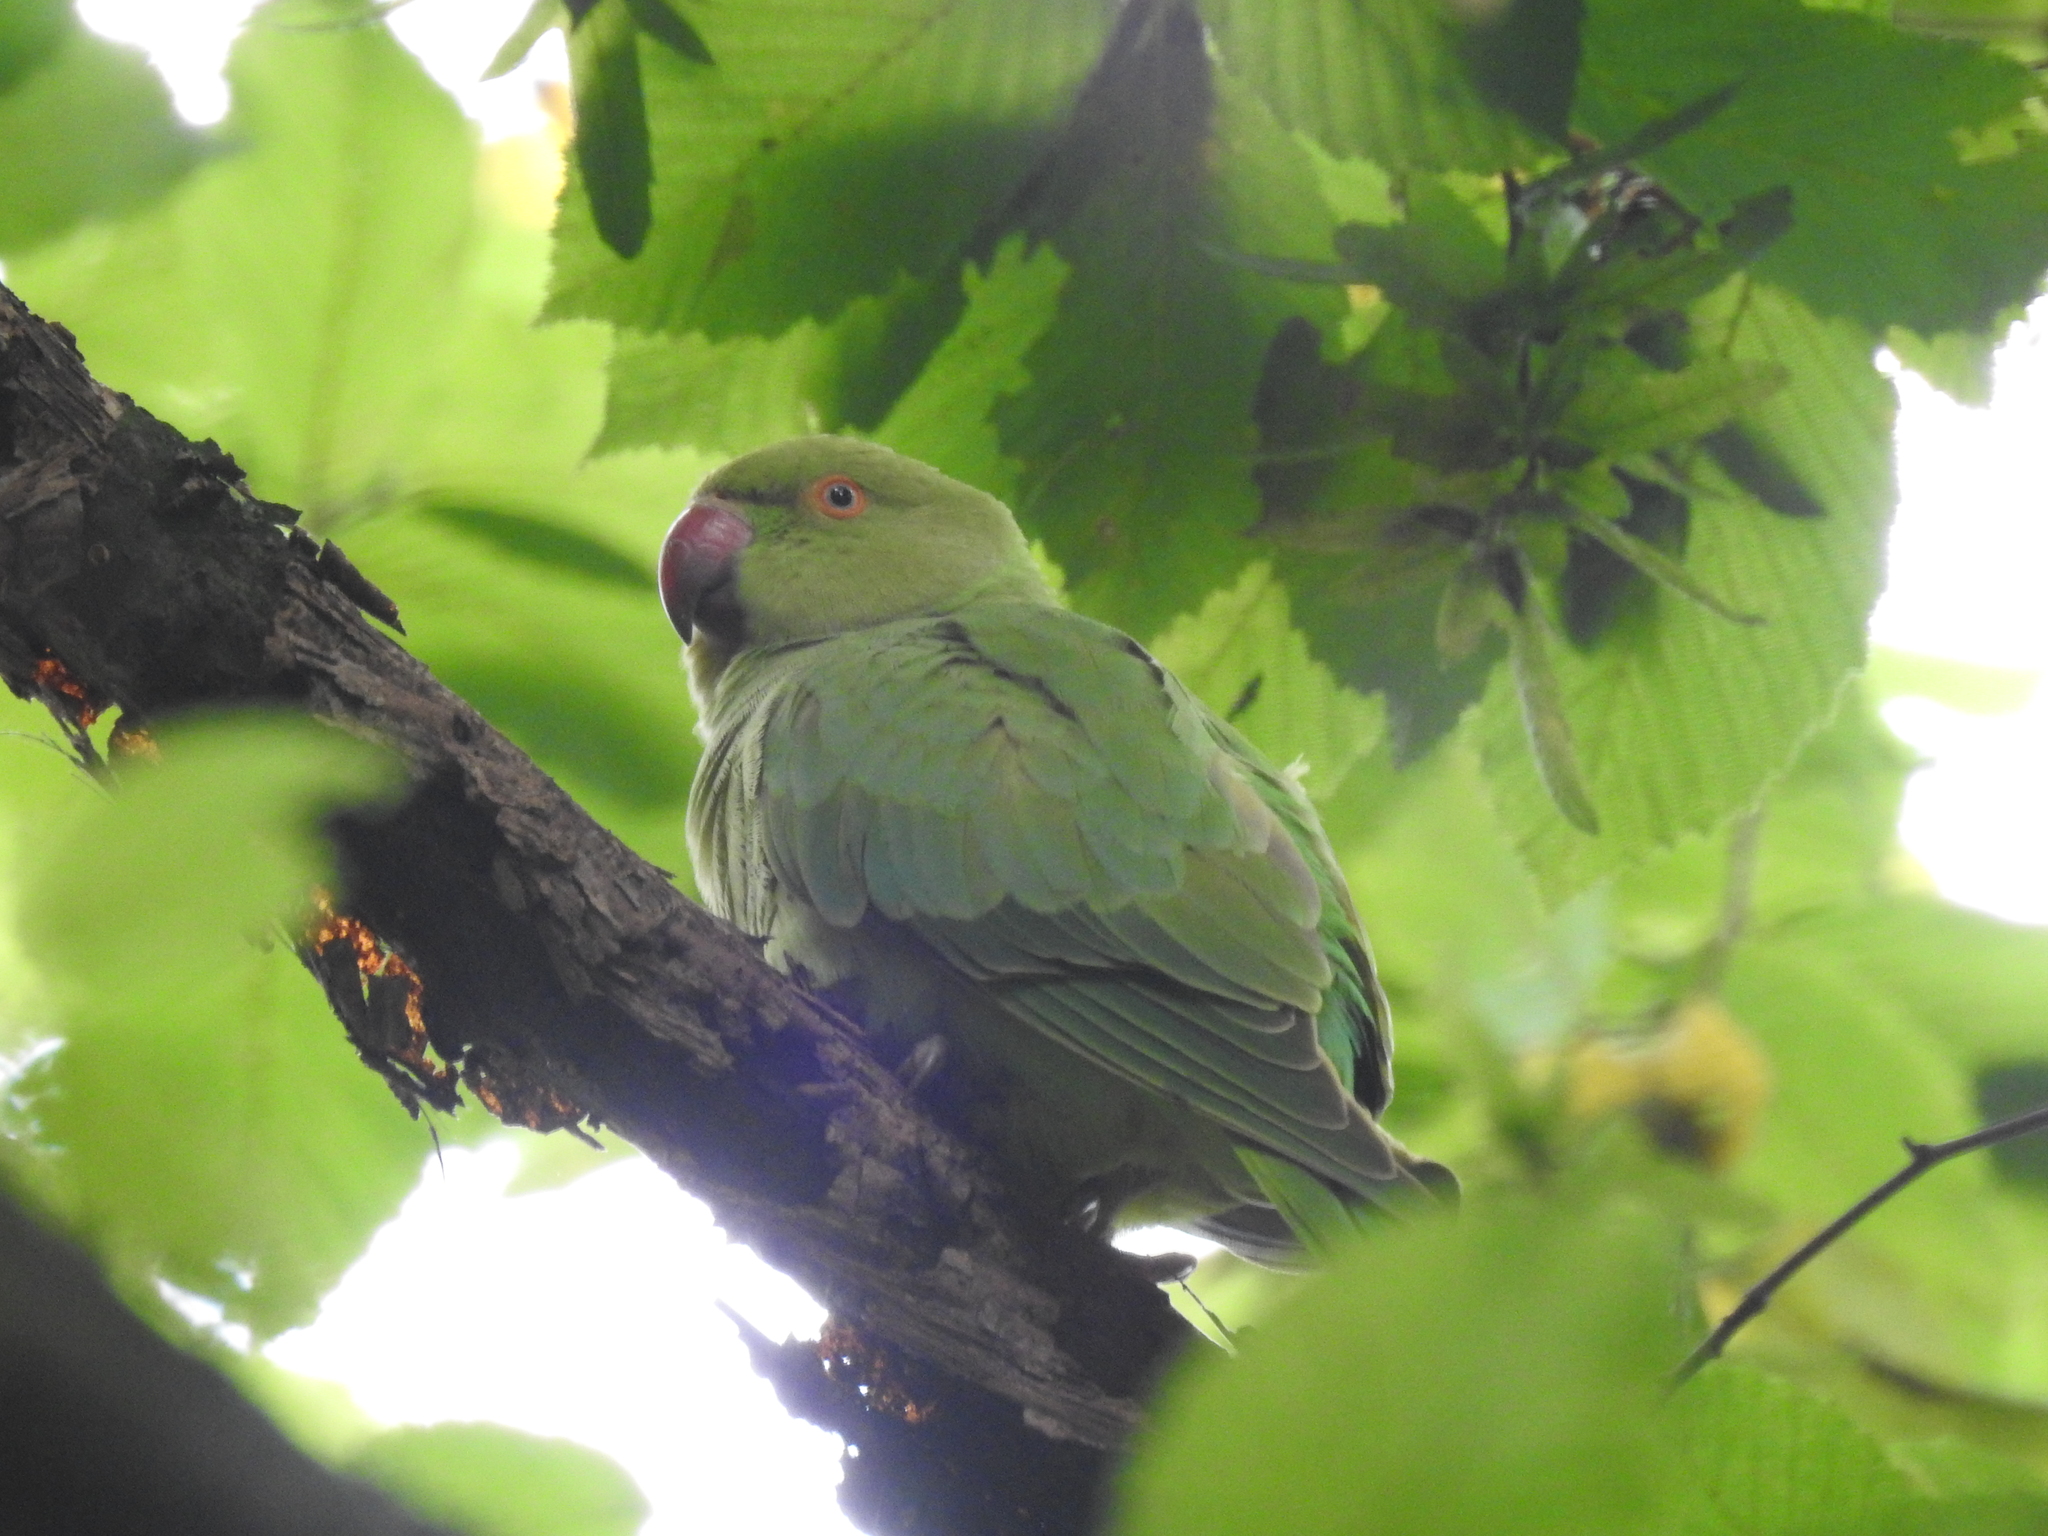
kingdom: Animalia
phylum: Chordata
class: Aves
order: Psittaciformes
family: Psittacidae
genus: Psittacula
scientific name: Psittacula krameri
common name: Rose-ringed parakeet
